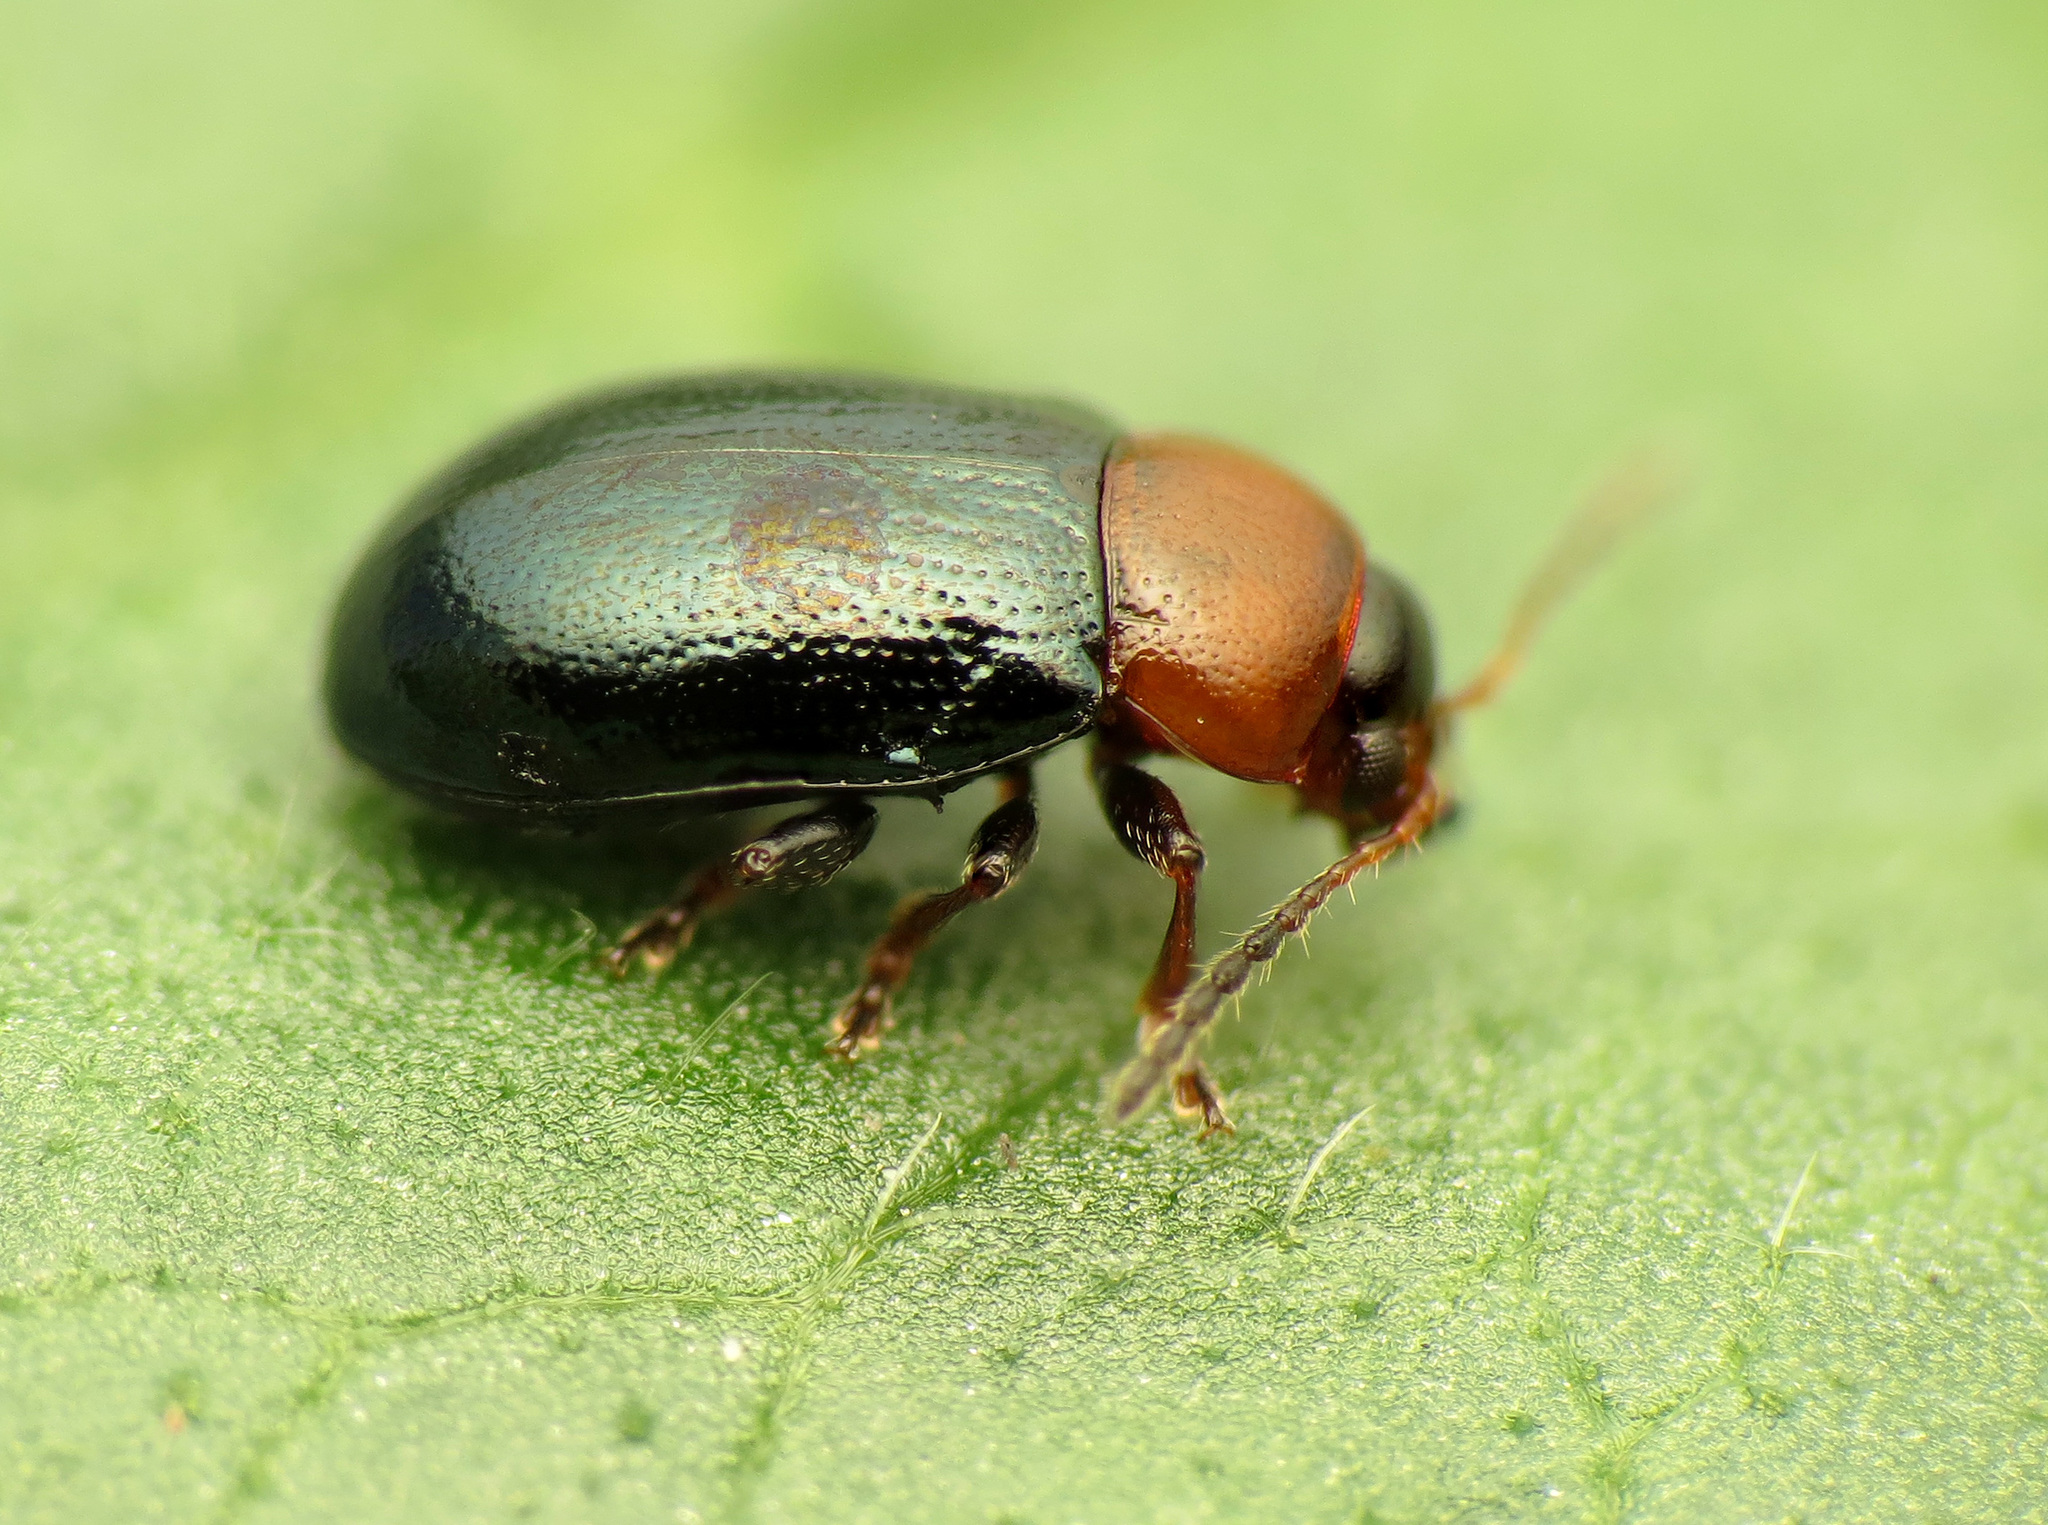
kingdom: Animalia
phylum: Arthropoda
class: Insecta
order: Coleoptera
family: Chrysomelidae
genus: Podagrica
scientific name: Podagrica malvae
